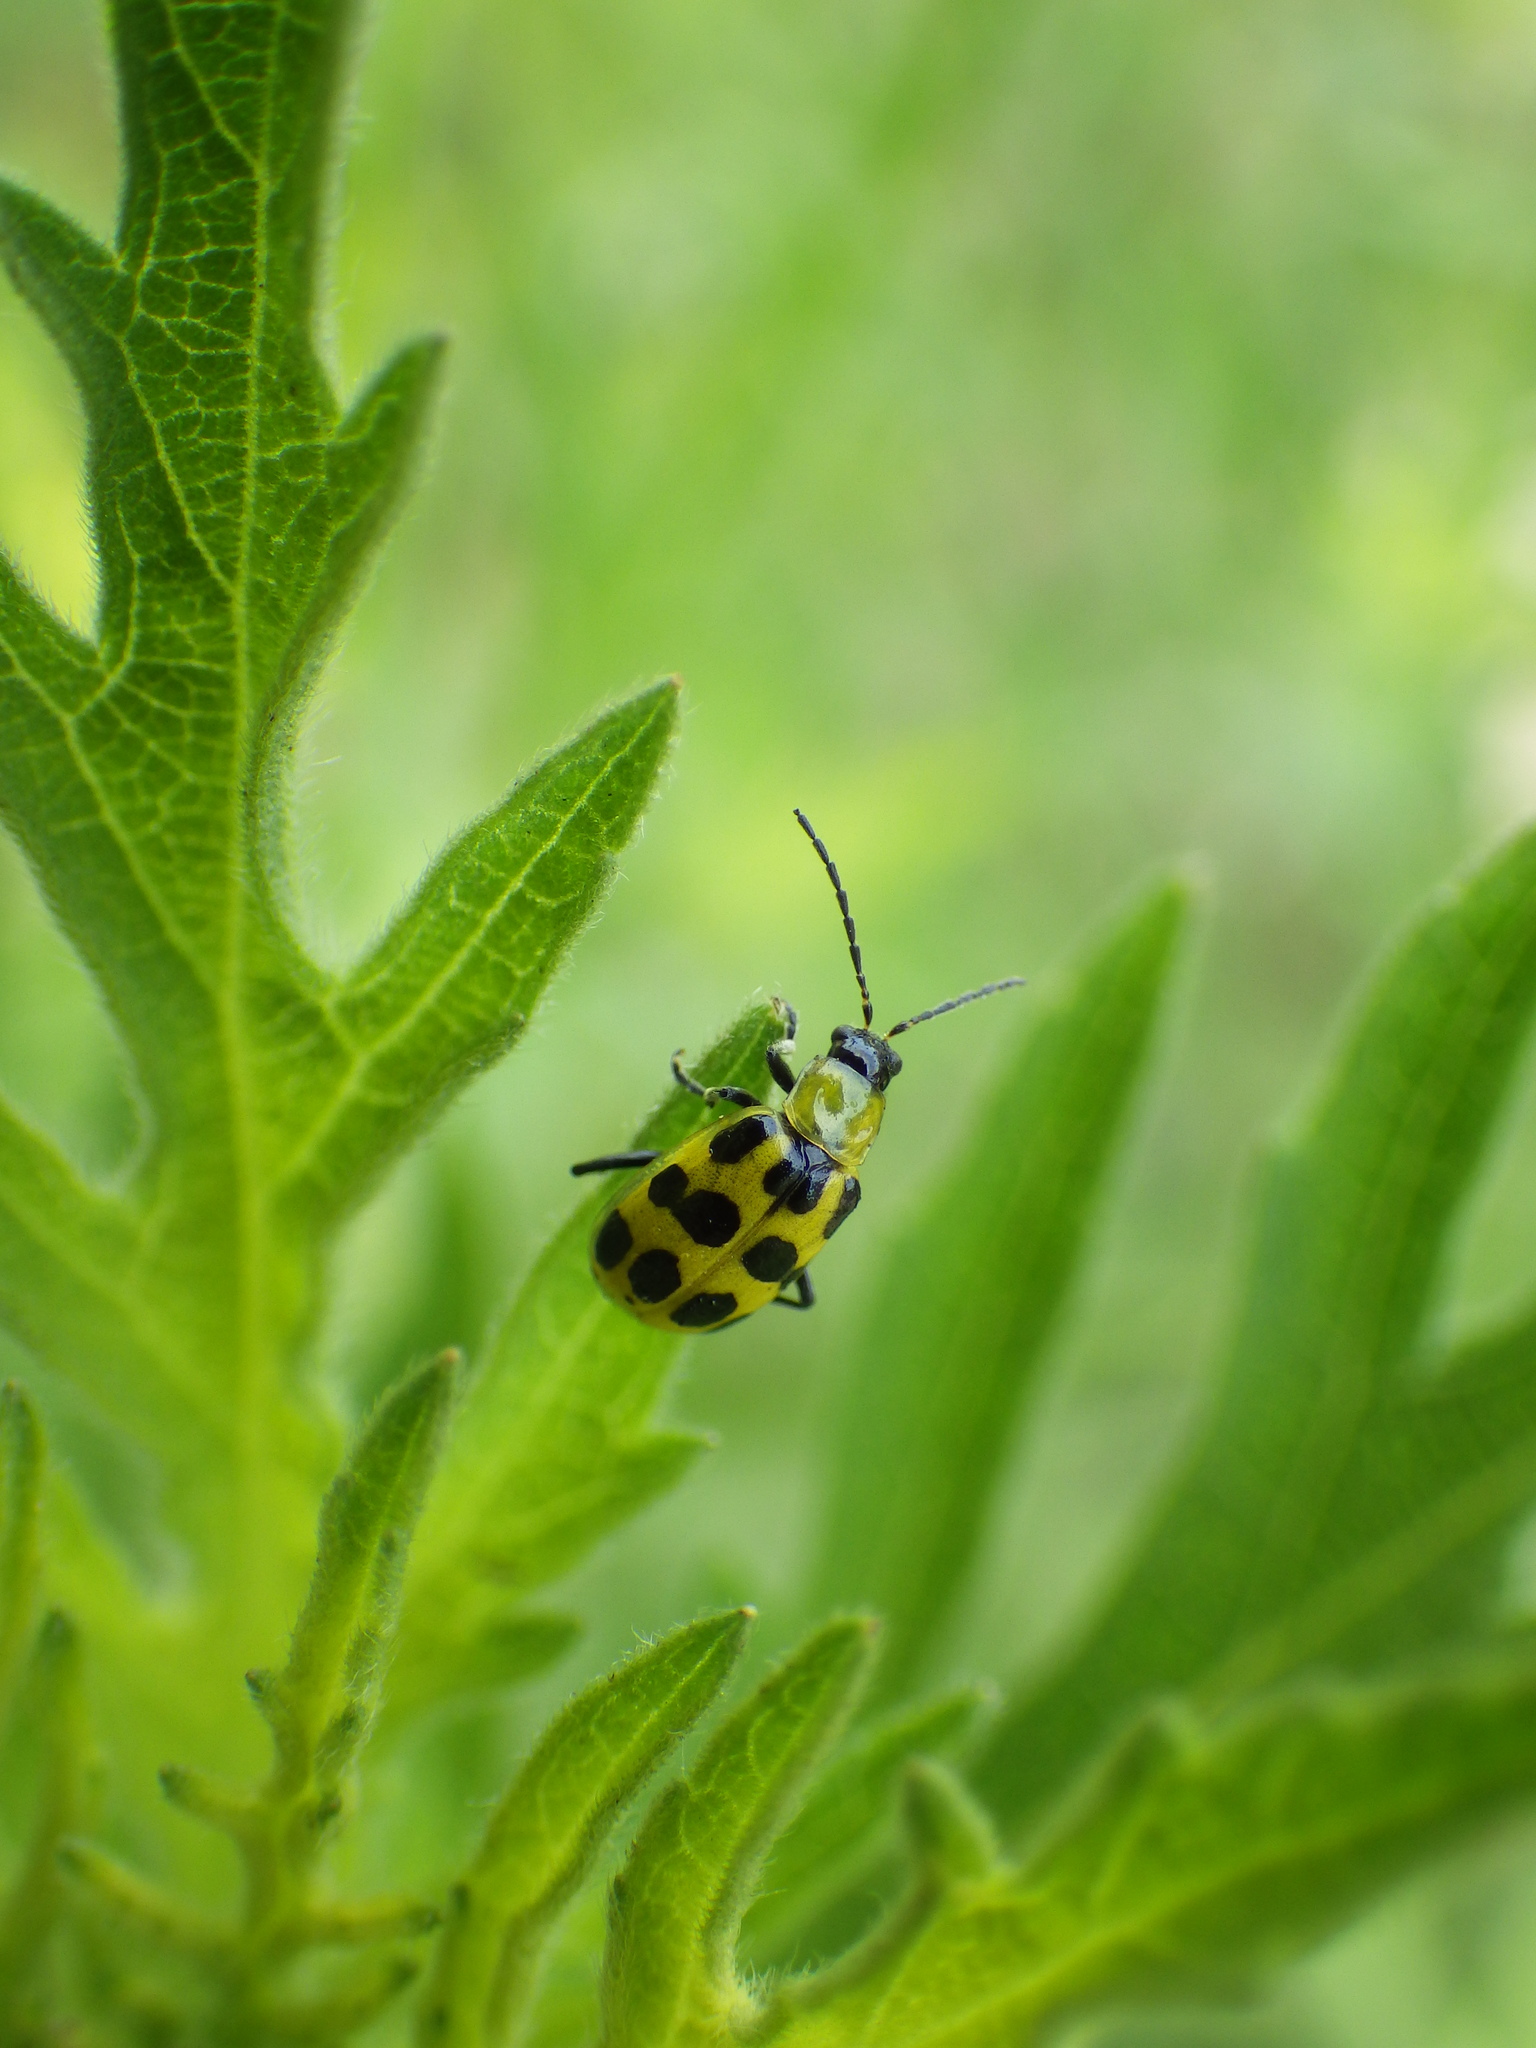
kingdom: Animalia
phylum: Arthropoda
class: Insecta
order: Coleoptera
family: Chrysomelidae
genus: Diabrotica
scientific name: Diabrotica undecimpunctata
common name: Spotted cucumber beetle
